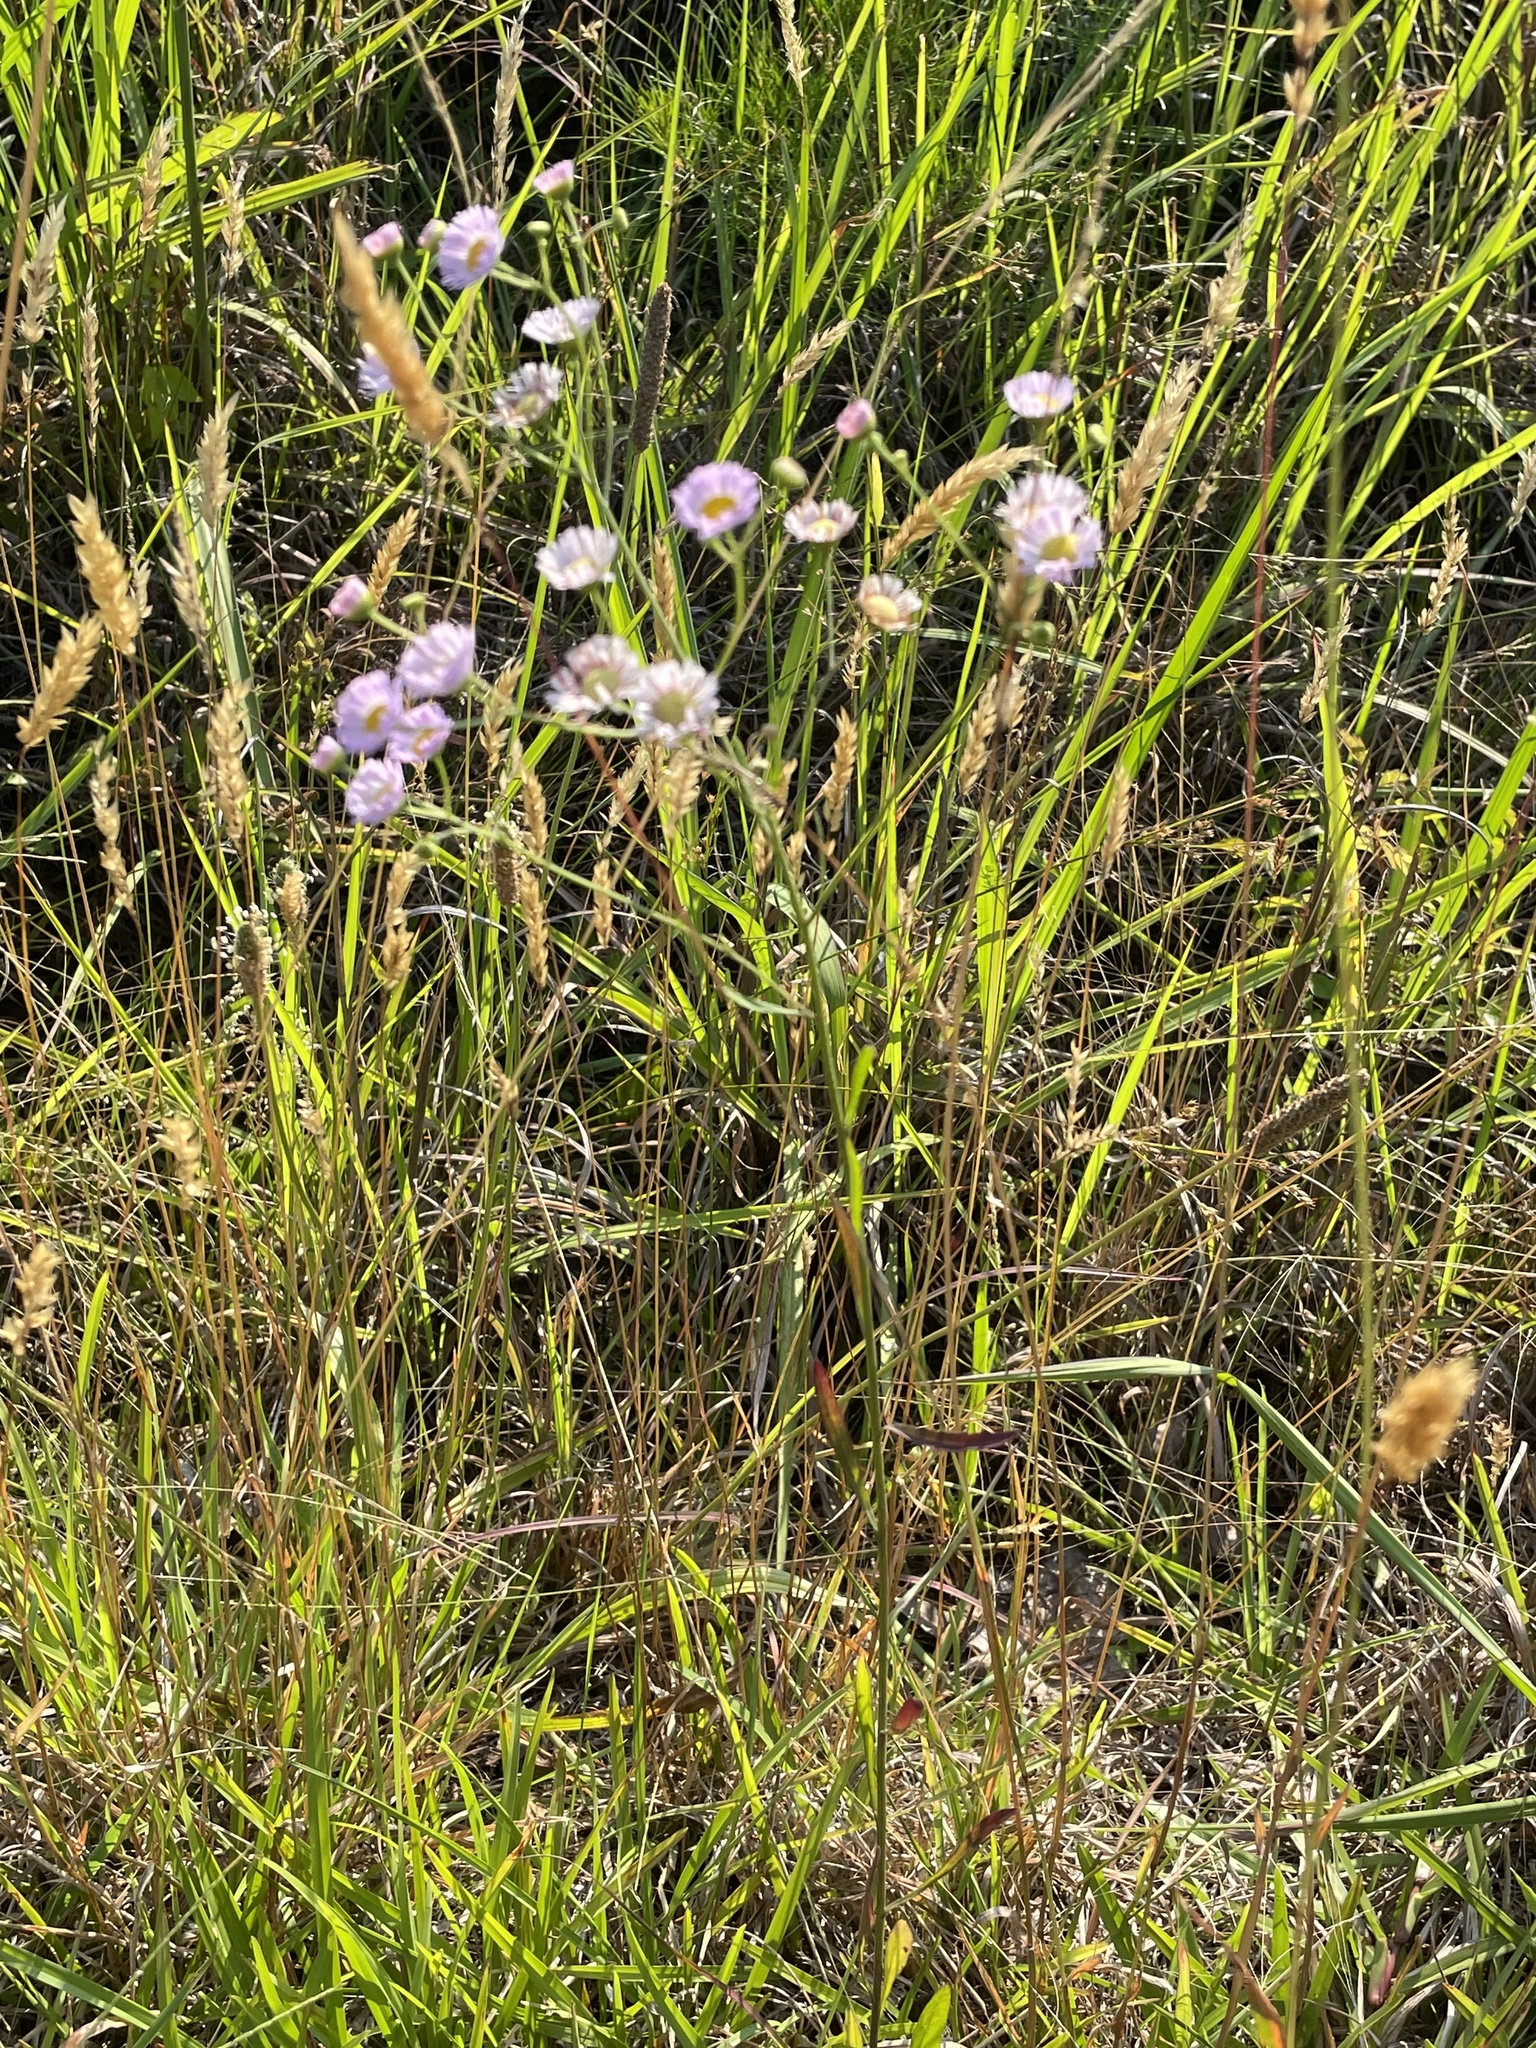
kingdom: Plantae
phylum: Tracheophyta
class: Magnoliopsida
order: Asterales
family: Asteraceae
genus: Erigeron
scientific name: Erigeron strigosus
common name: Common eastern fleabane
